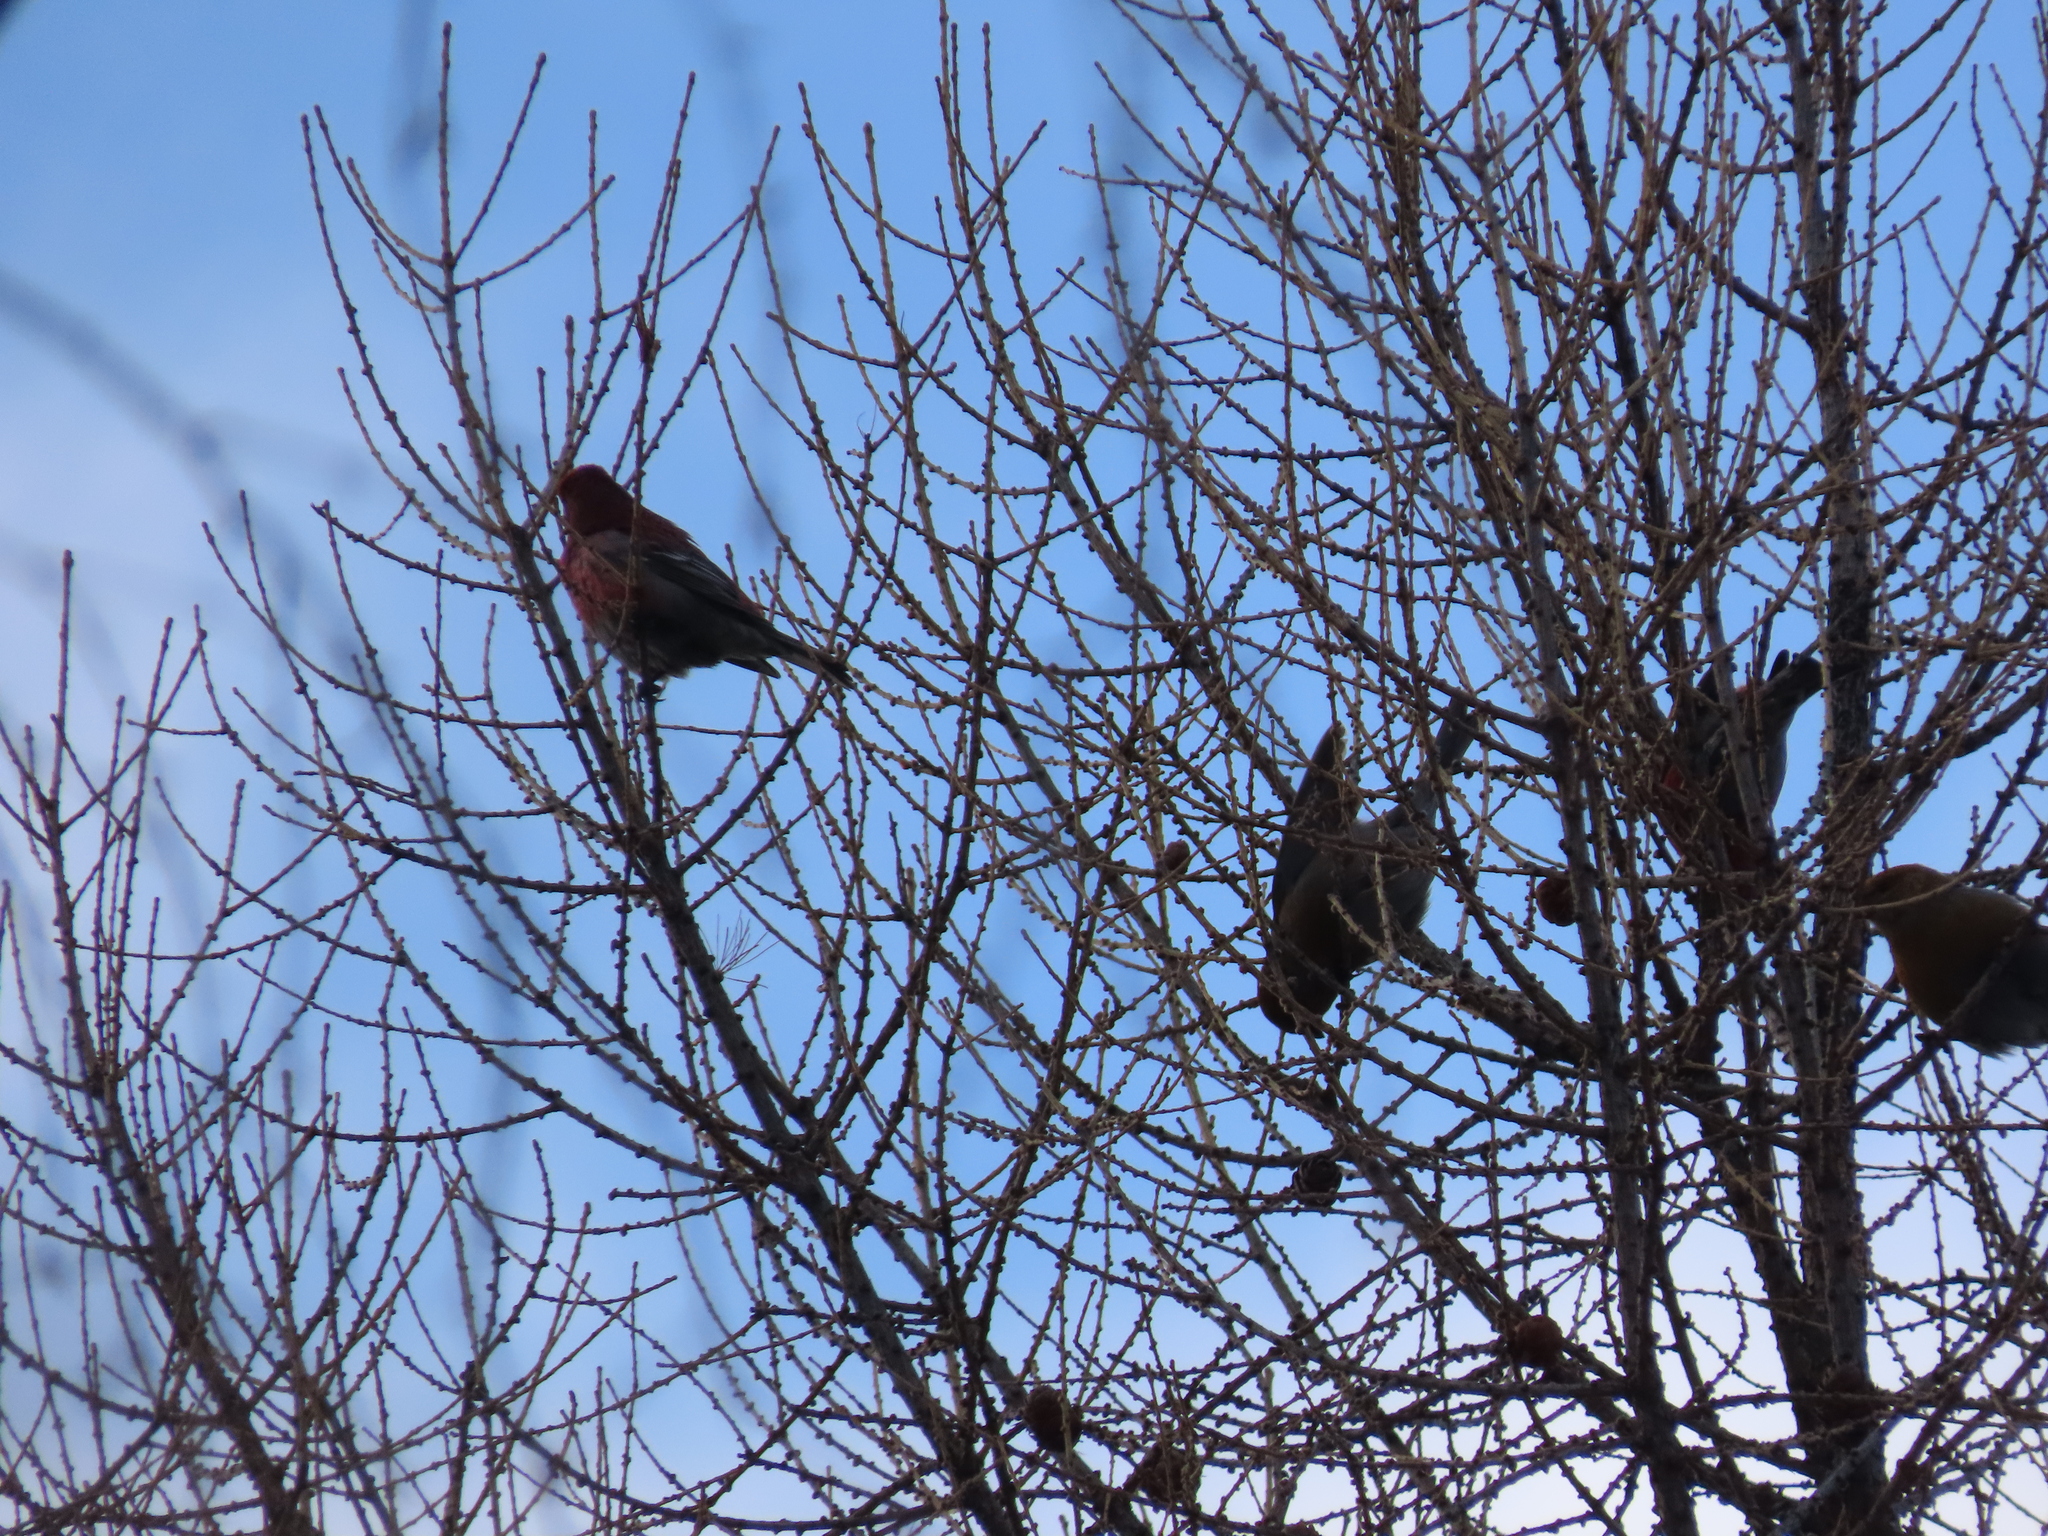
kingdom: Animalia
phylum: Chordata
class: Aves
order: Passeriformes
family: Fringillidae
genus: Pinicola
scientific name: Pinicola enucleator
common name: Pine grosbeak
